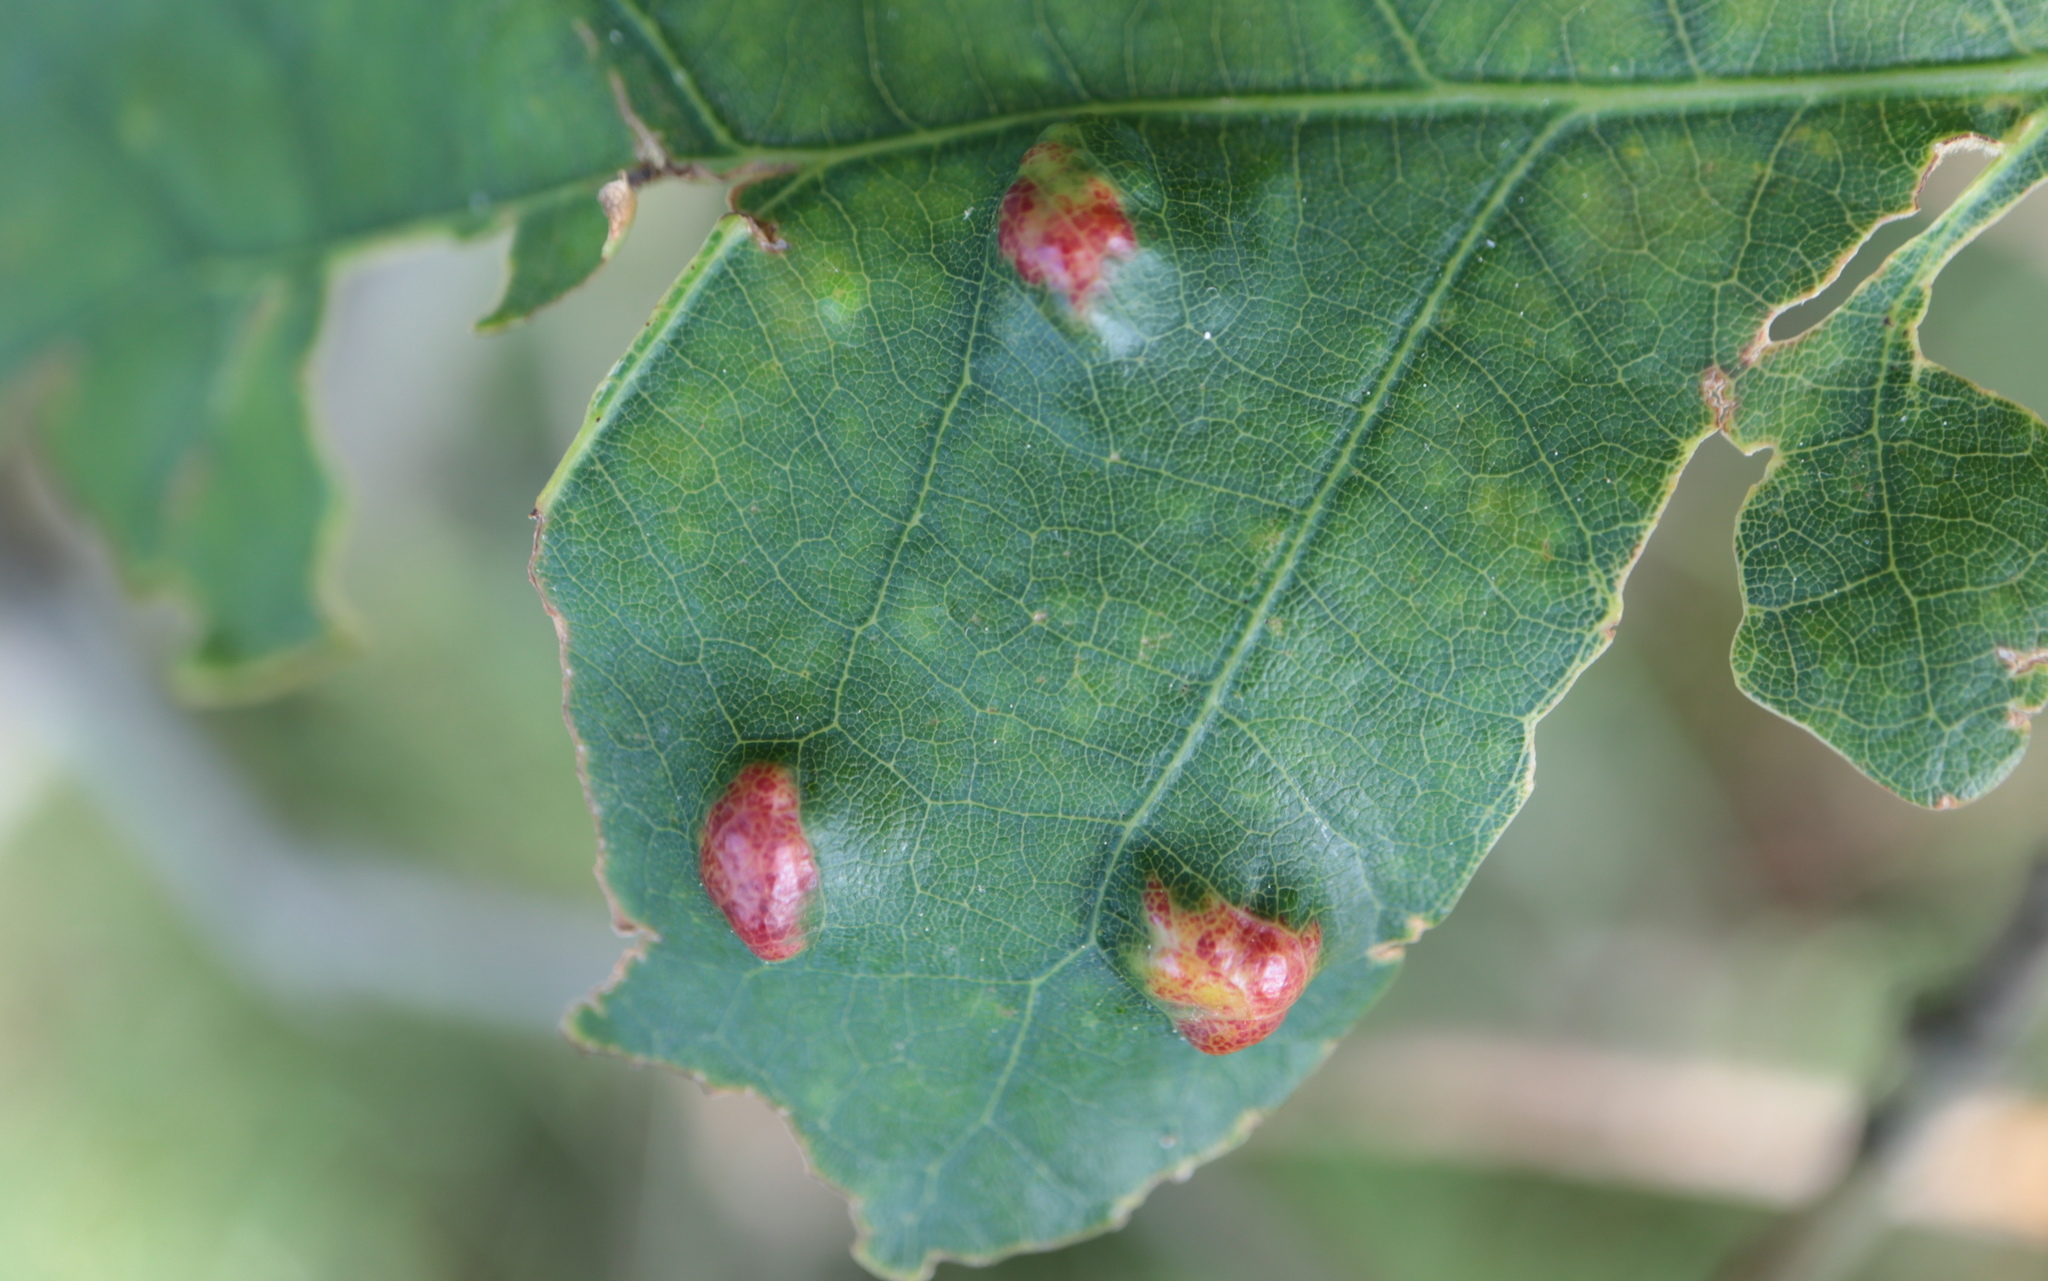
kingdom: Animalia
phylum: Arthropoda
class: Arachnida
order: Trombidiformes
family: Eriophyidae
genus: Aceria
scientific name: Aceria
